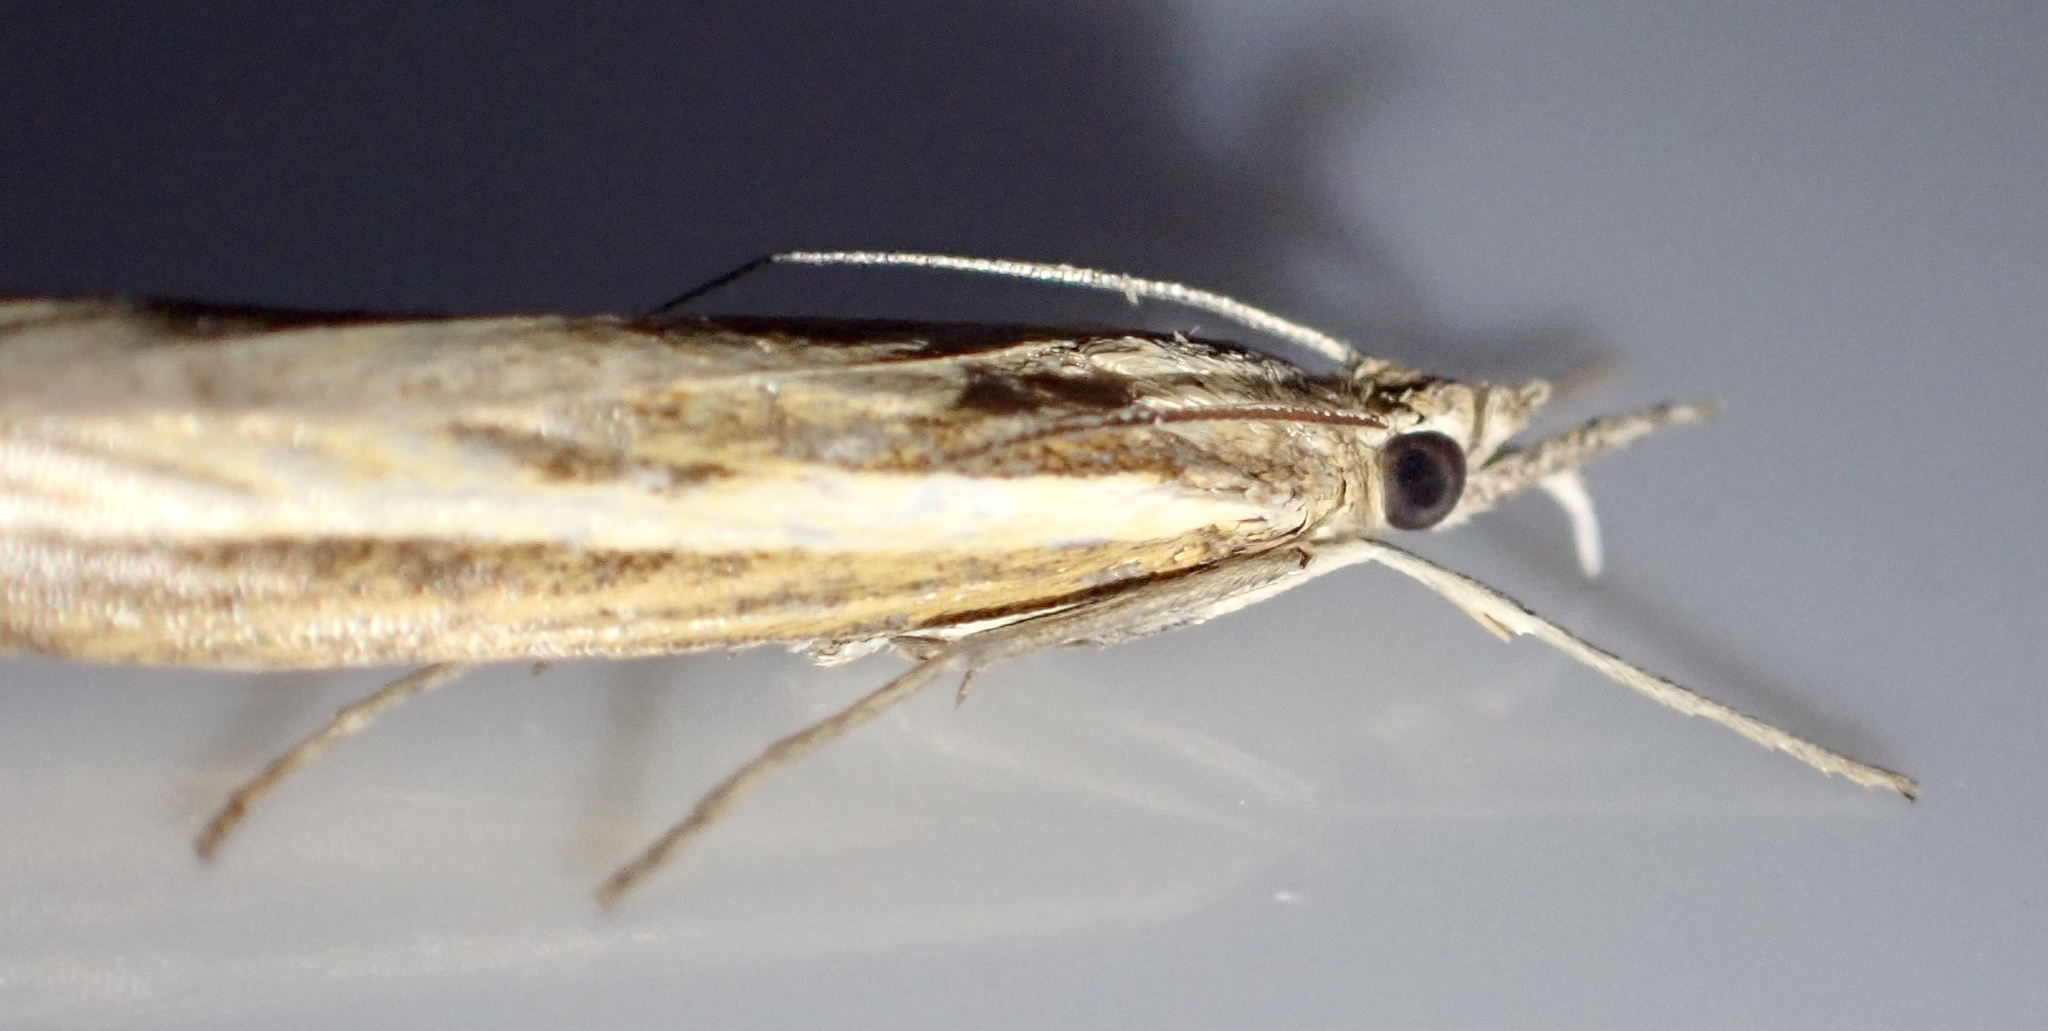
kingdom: Animalia
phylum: Arthropoda
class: Insecta
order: Lepidoptera
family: Crambidae
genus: Agriphila
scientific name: Agriphila tristellus
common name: Common grass-veneer
